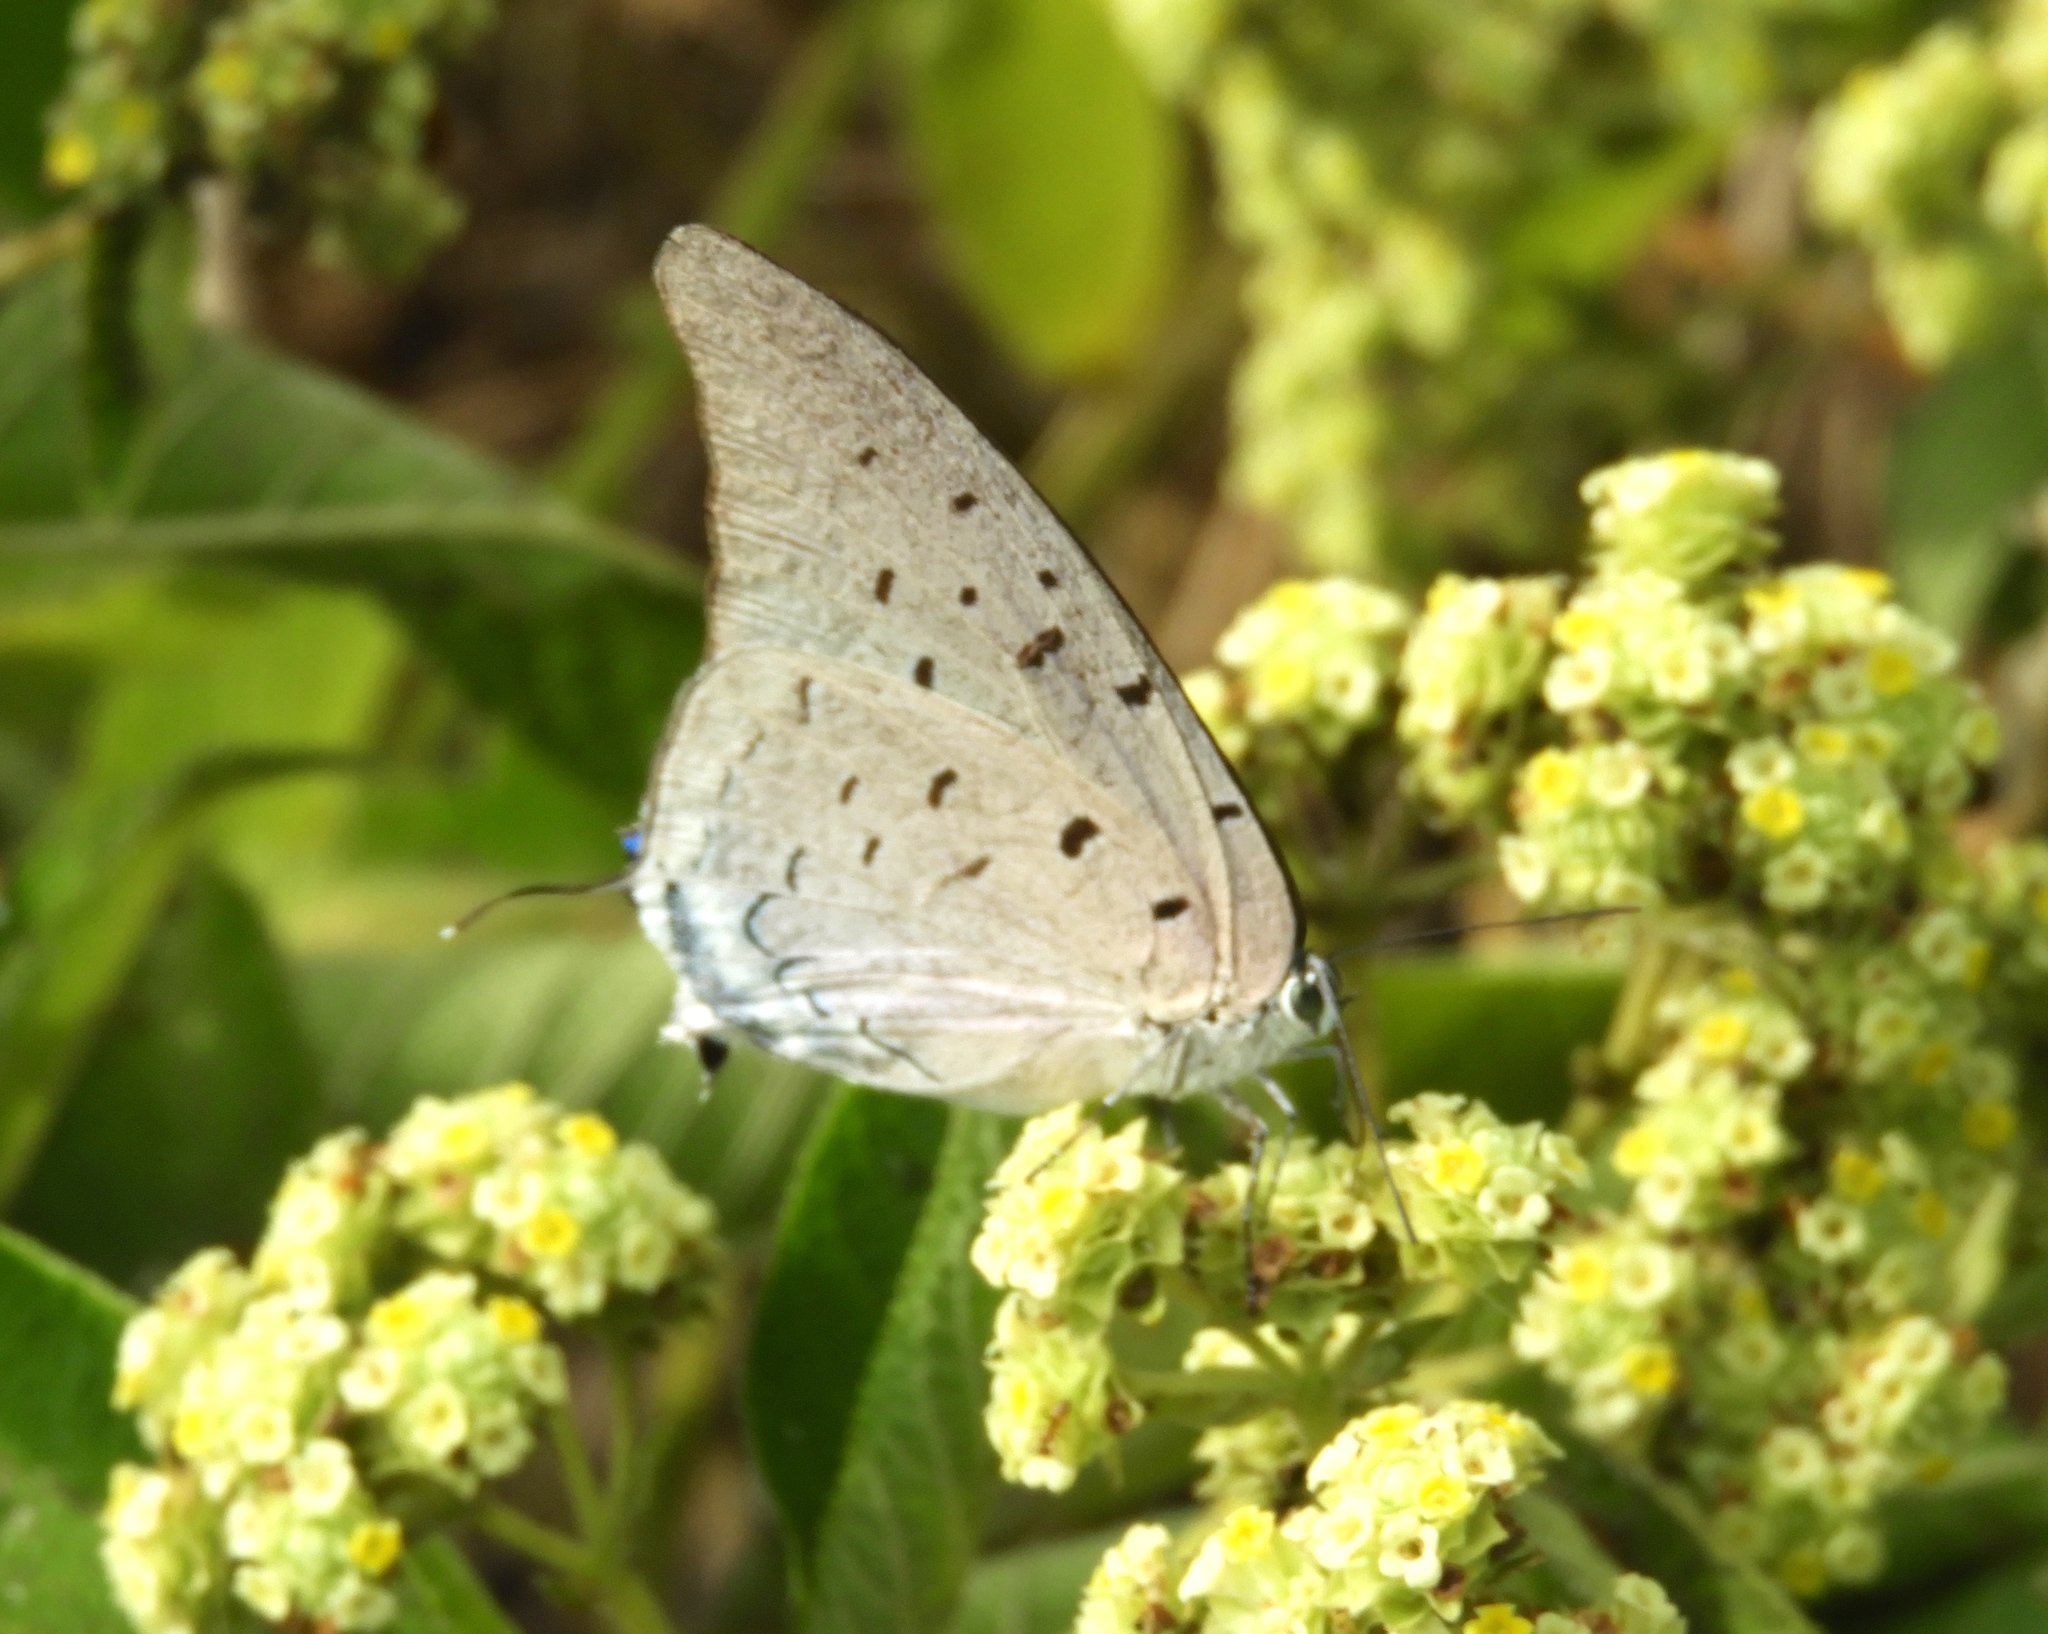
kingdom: Animalia
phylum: Arthropoda
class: Insecta
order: Lepidoptera
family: Lycaenidae
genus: Pseudolycaena
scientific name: Pseudolycaena damo
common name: Sky-blue hairstreak
